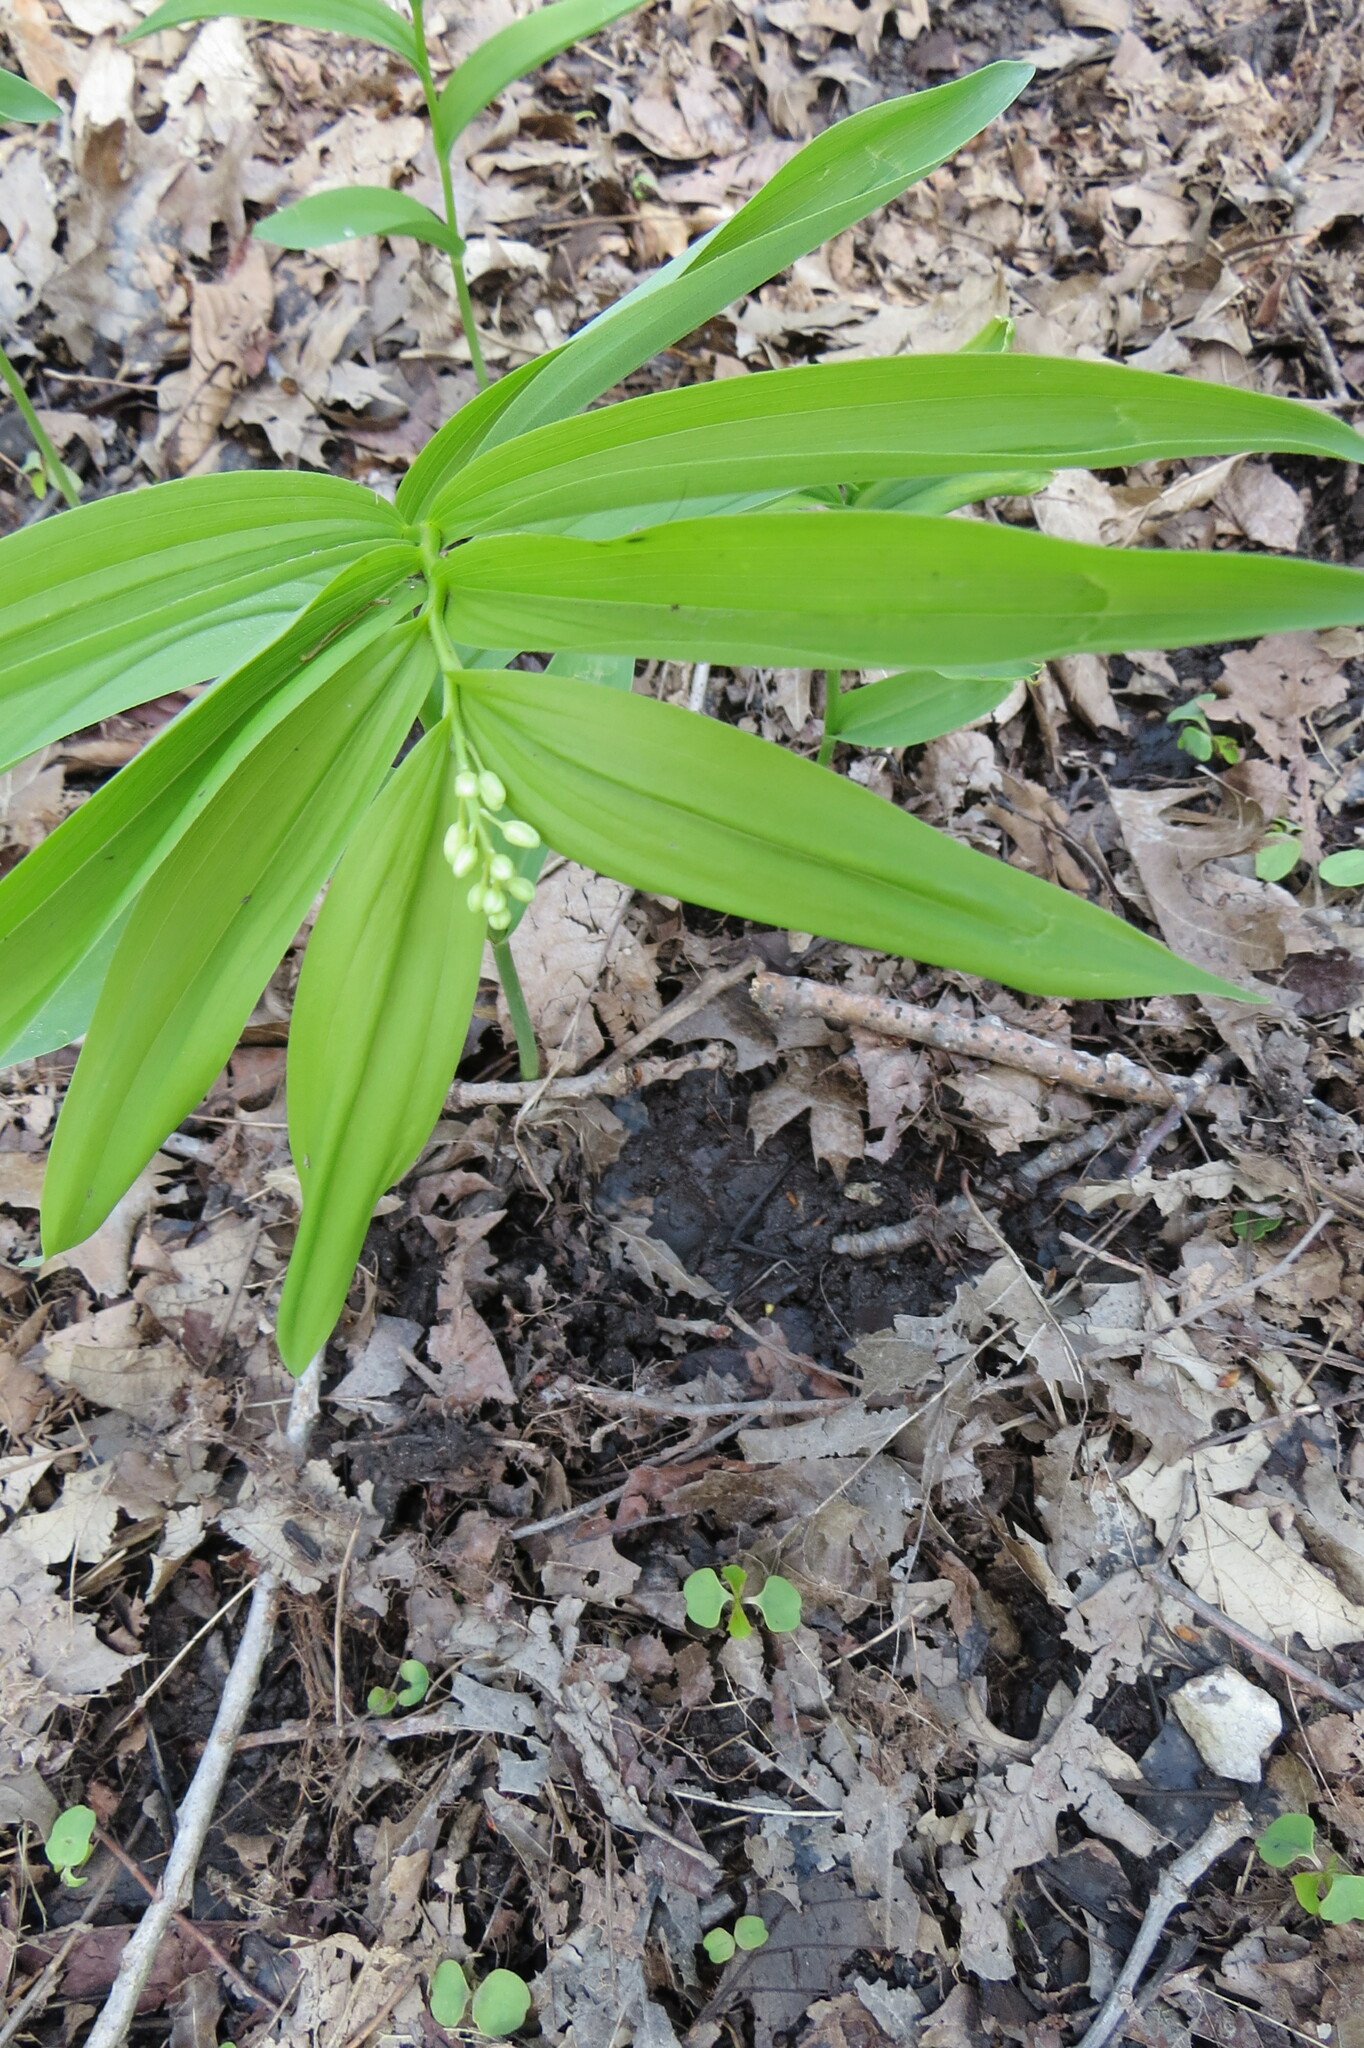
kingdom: Plantae
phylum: Tracheophyta
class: Liliopsida
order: Asparagales
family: Asparagaceae
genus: Maianthemum
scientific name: Maianthemum stellatum
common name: Little false solomon's seal
